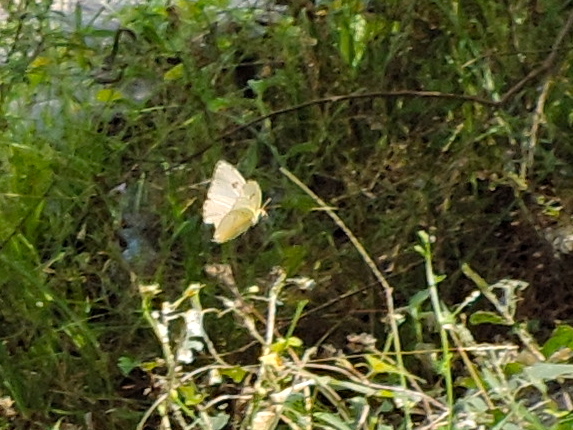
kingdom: Animalia
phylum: Arthropoda
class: Insecta
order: Lepidoptera
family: Pieridae
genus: Phoebis
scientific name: Phoebis marcellina
